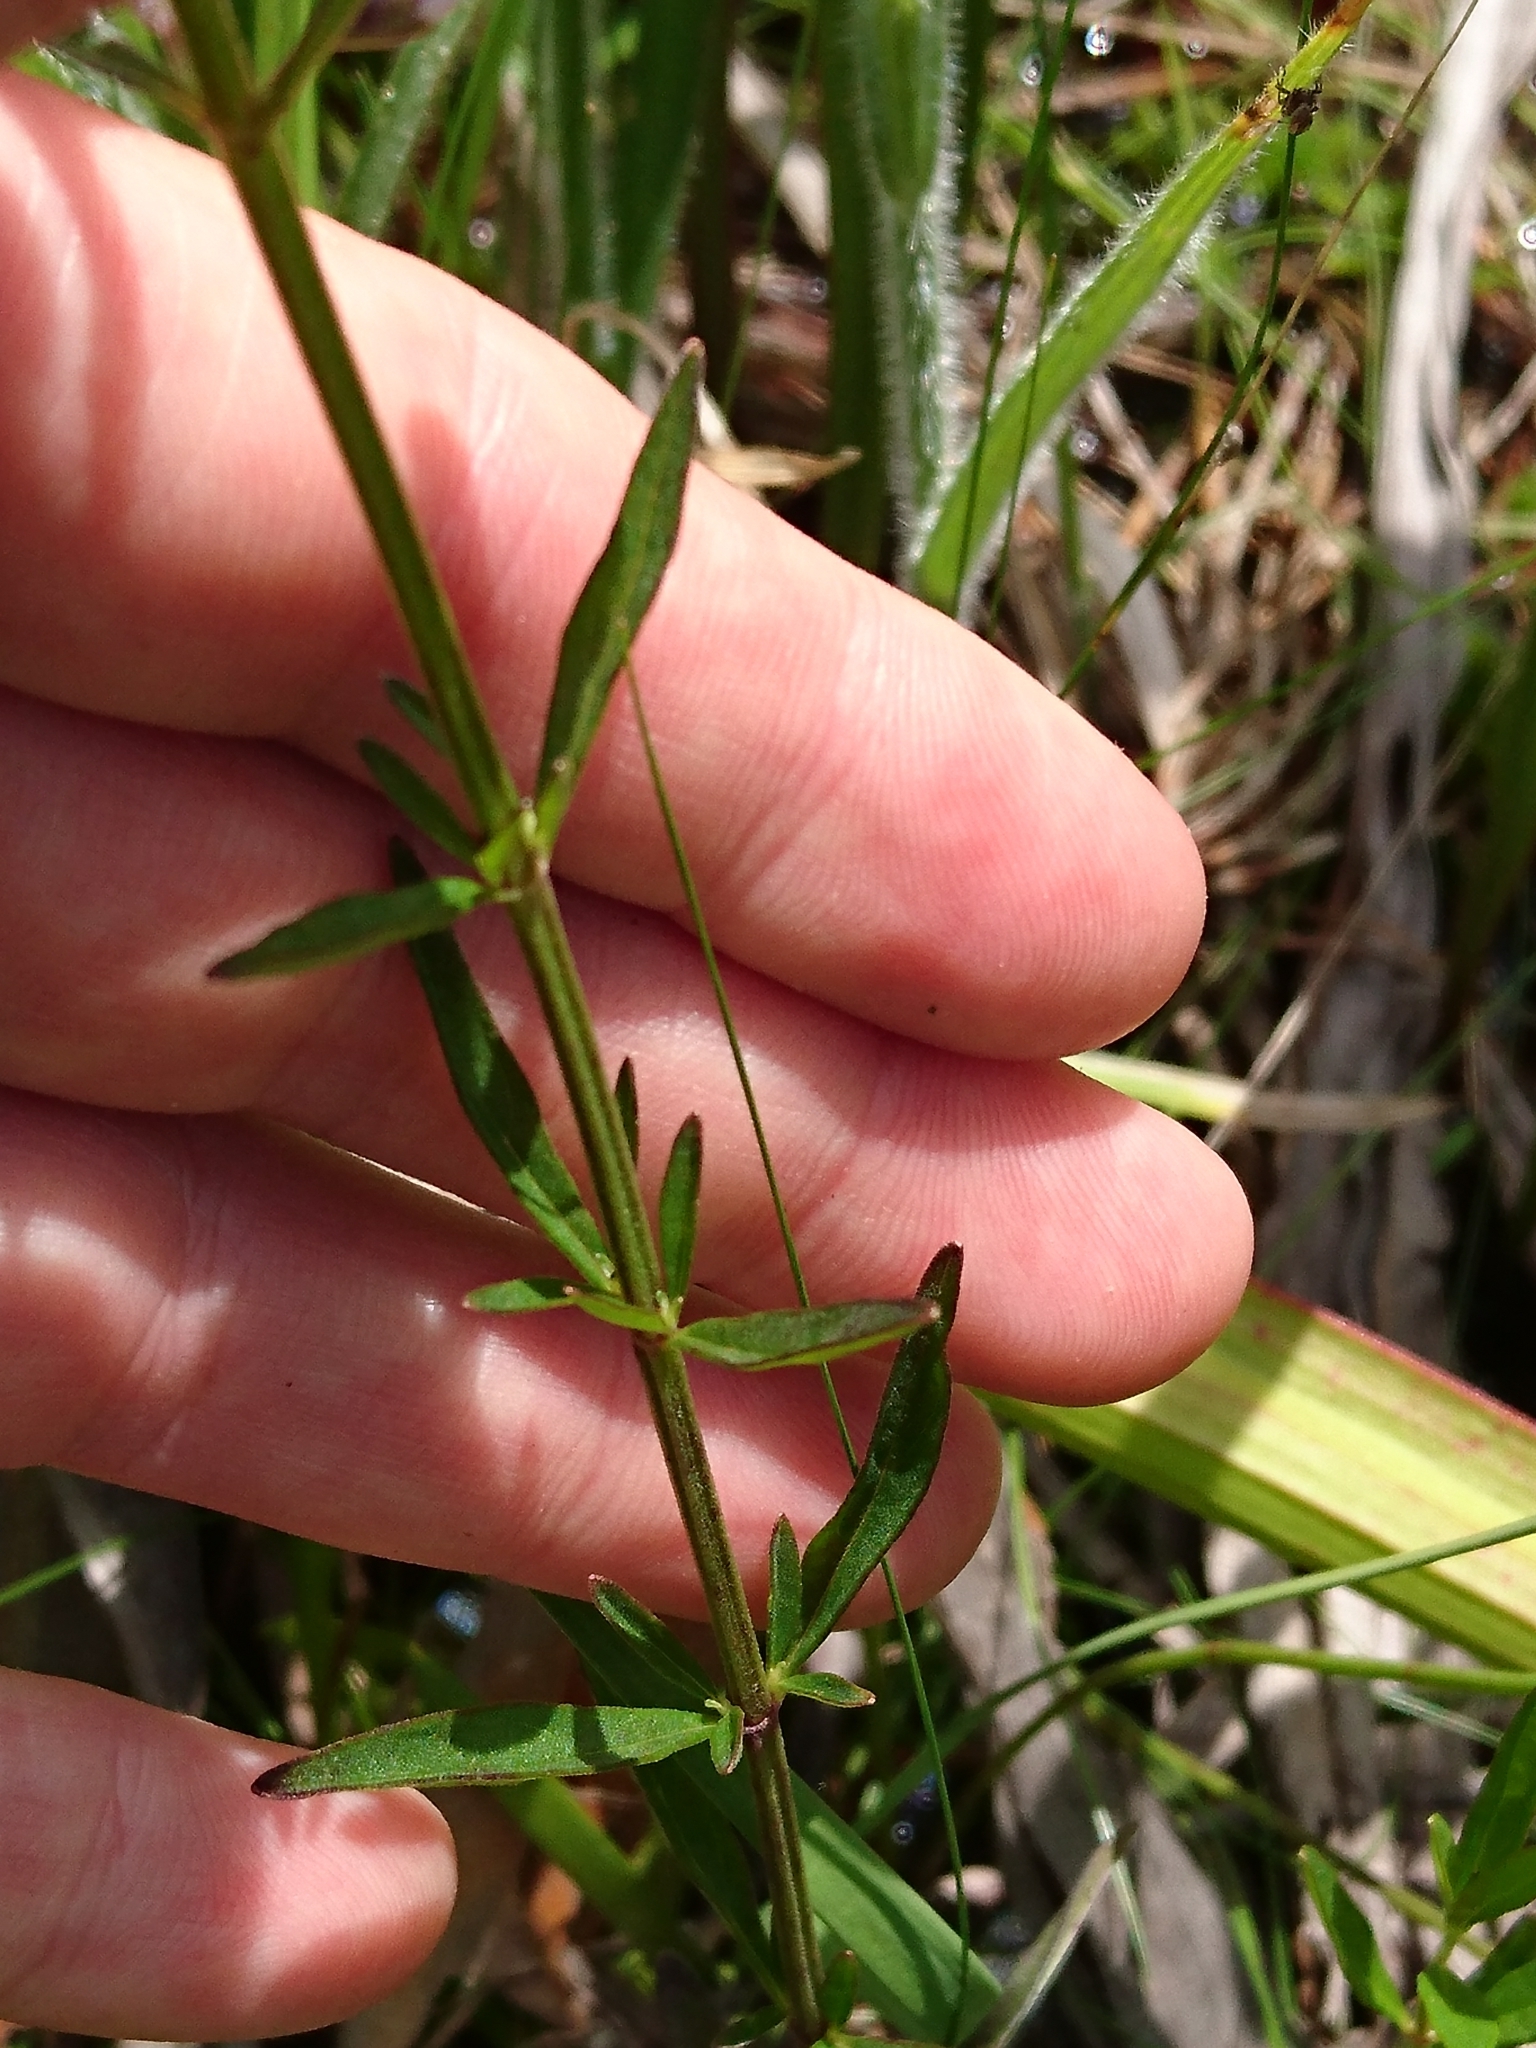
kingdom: Plantae
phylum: Tracheophyta
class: Magnoliopsida
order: Lamiales
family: Lamiaceae
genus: Scutellaria
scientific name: Scutellaria integrifolia
